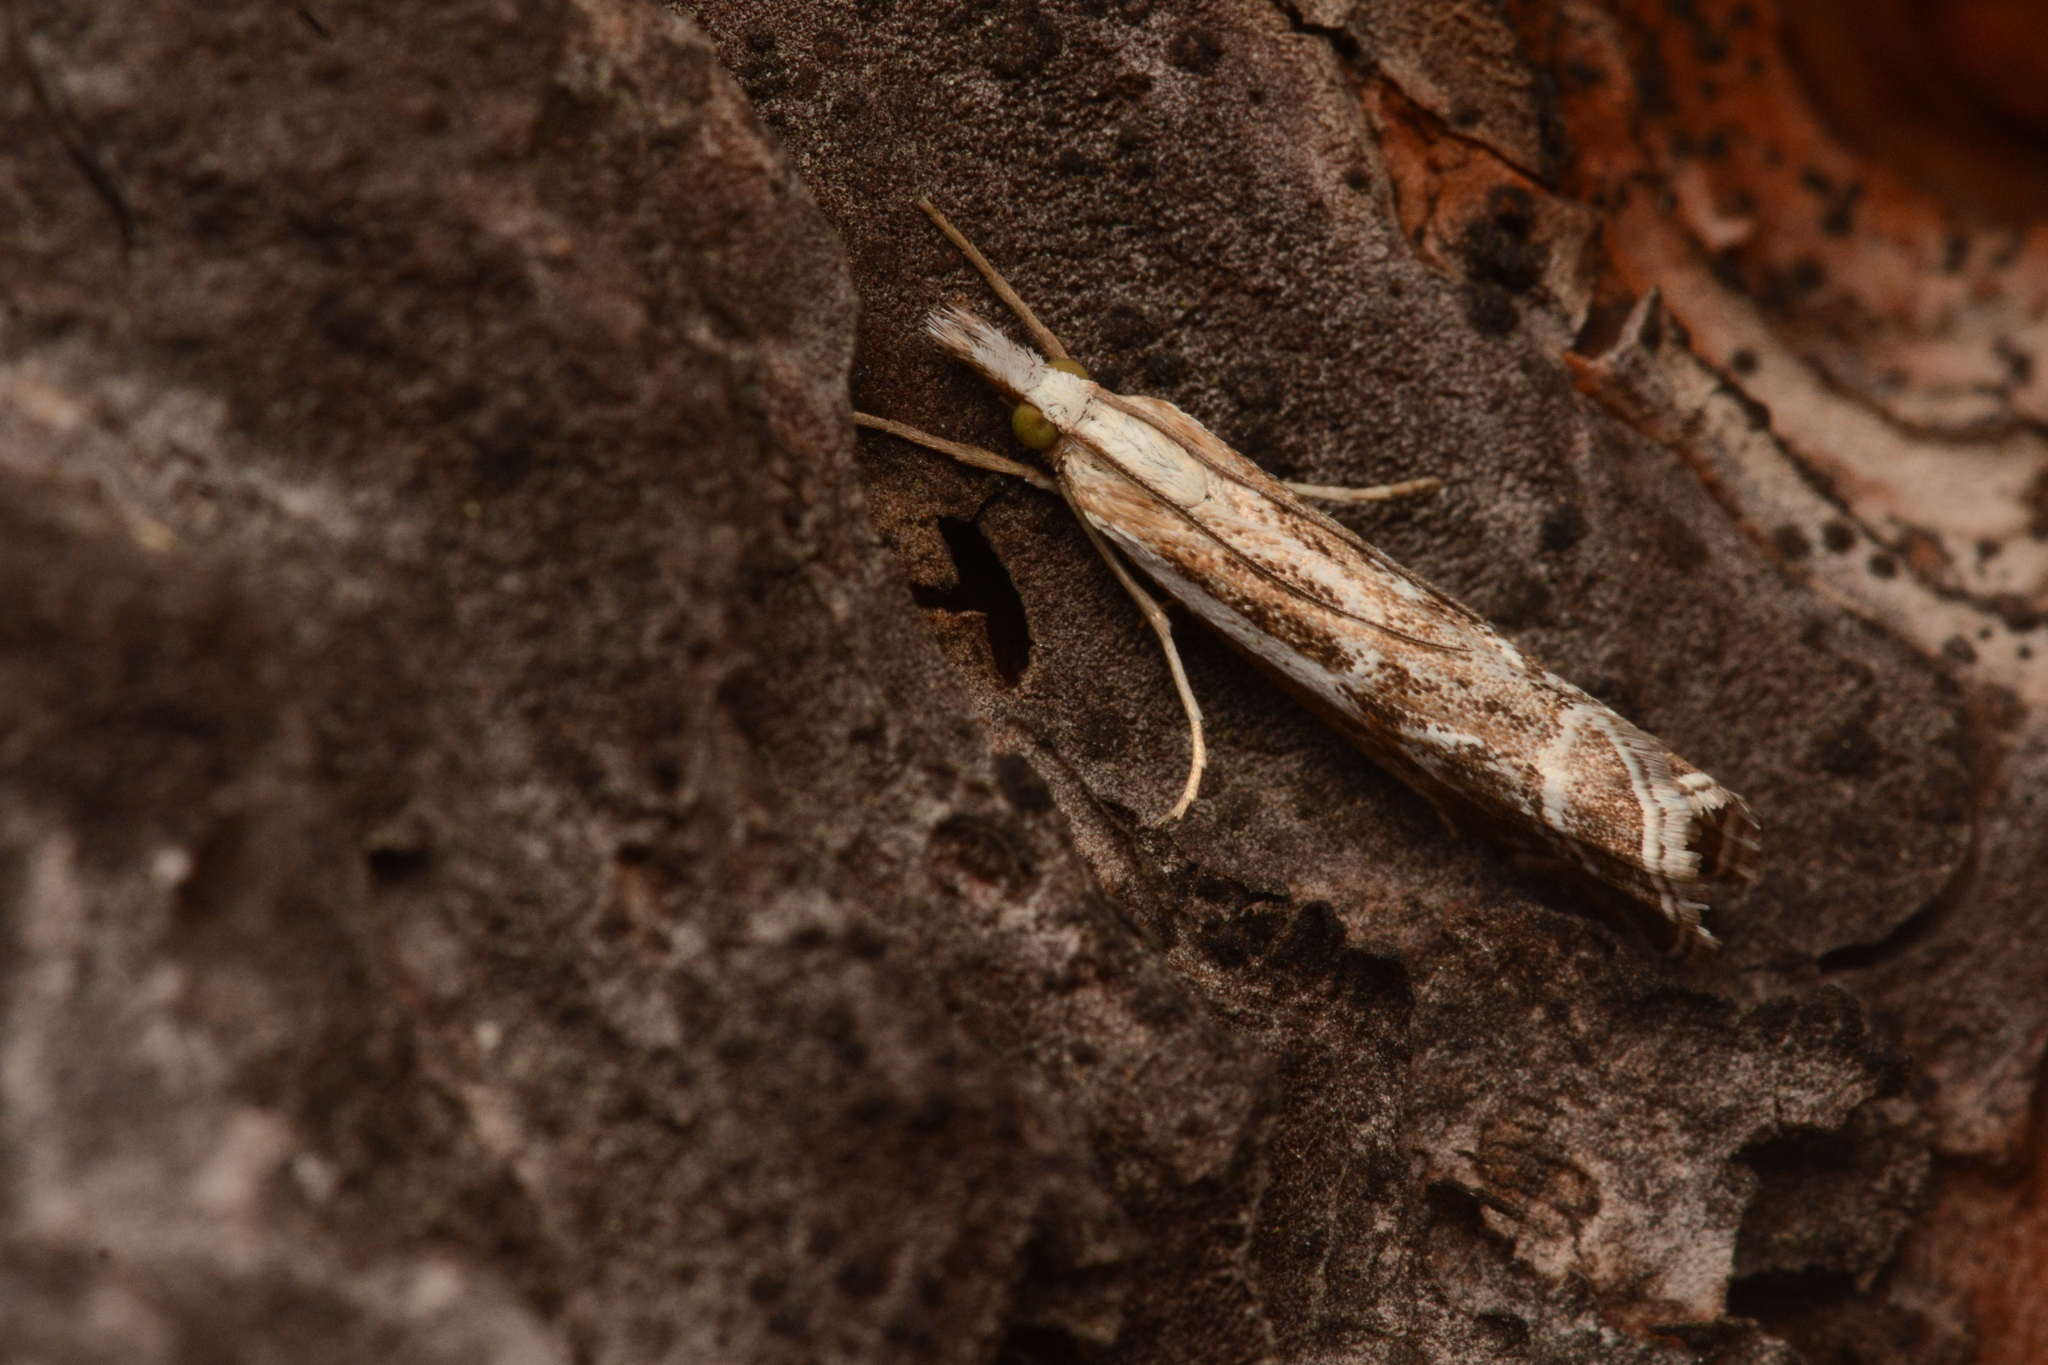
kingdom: Animalia
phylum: Arthropoda
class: Insecta
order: Lepidoptera
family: Crambidae
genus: Catoptria
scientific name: Catoptria oregonicus
